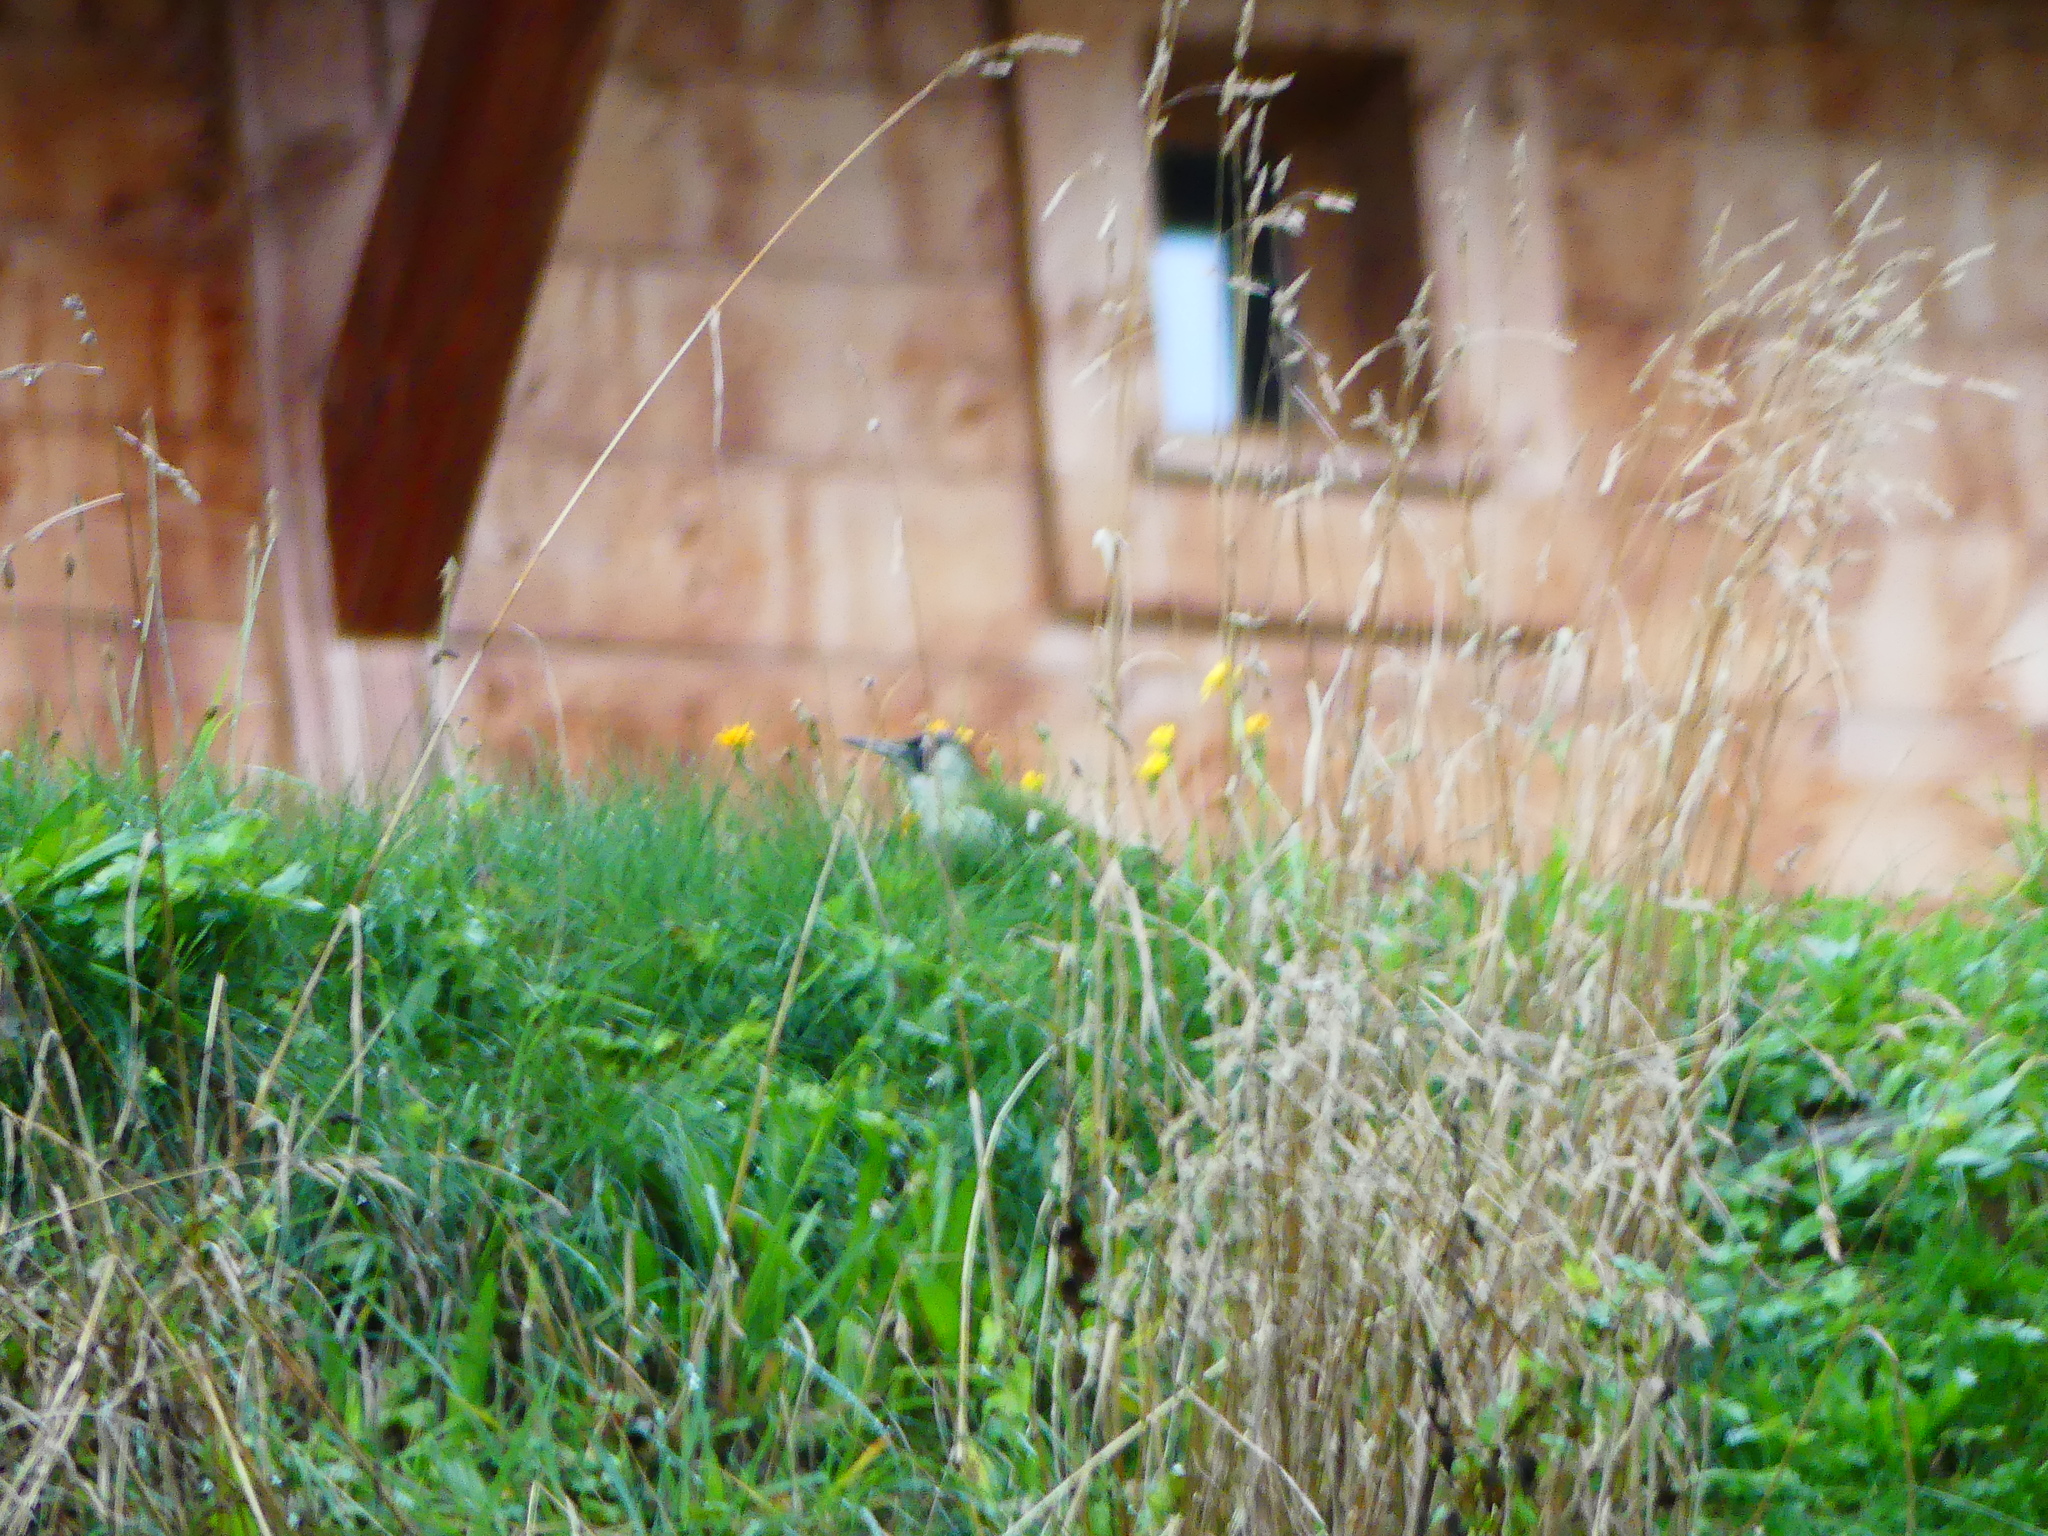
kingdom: Animalia
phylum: Chordata
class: Aves
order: Piciformes
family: Picidae
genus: Picus
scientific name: Picus viridis
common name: European green woodpecker
